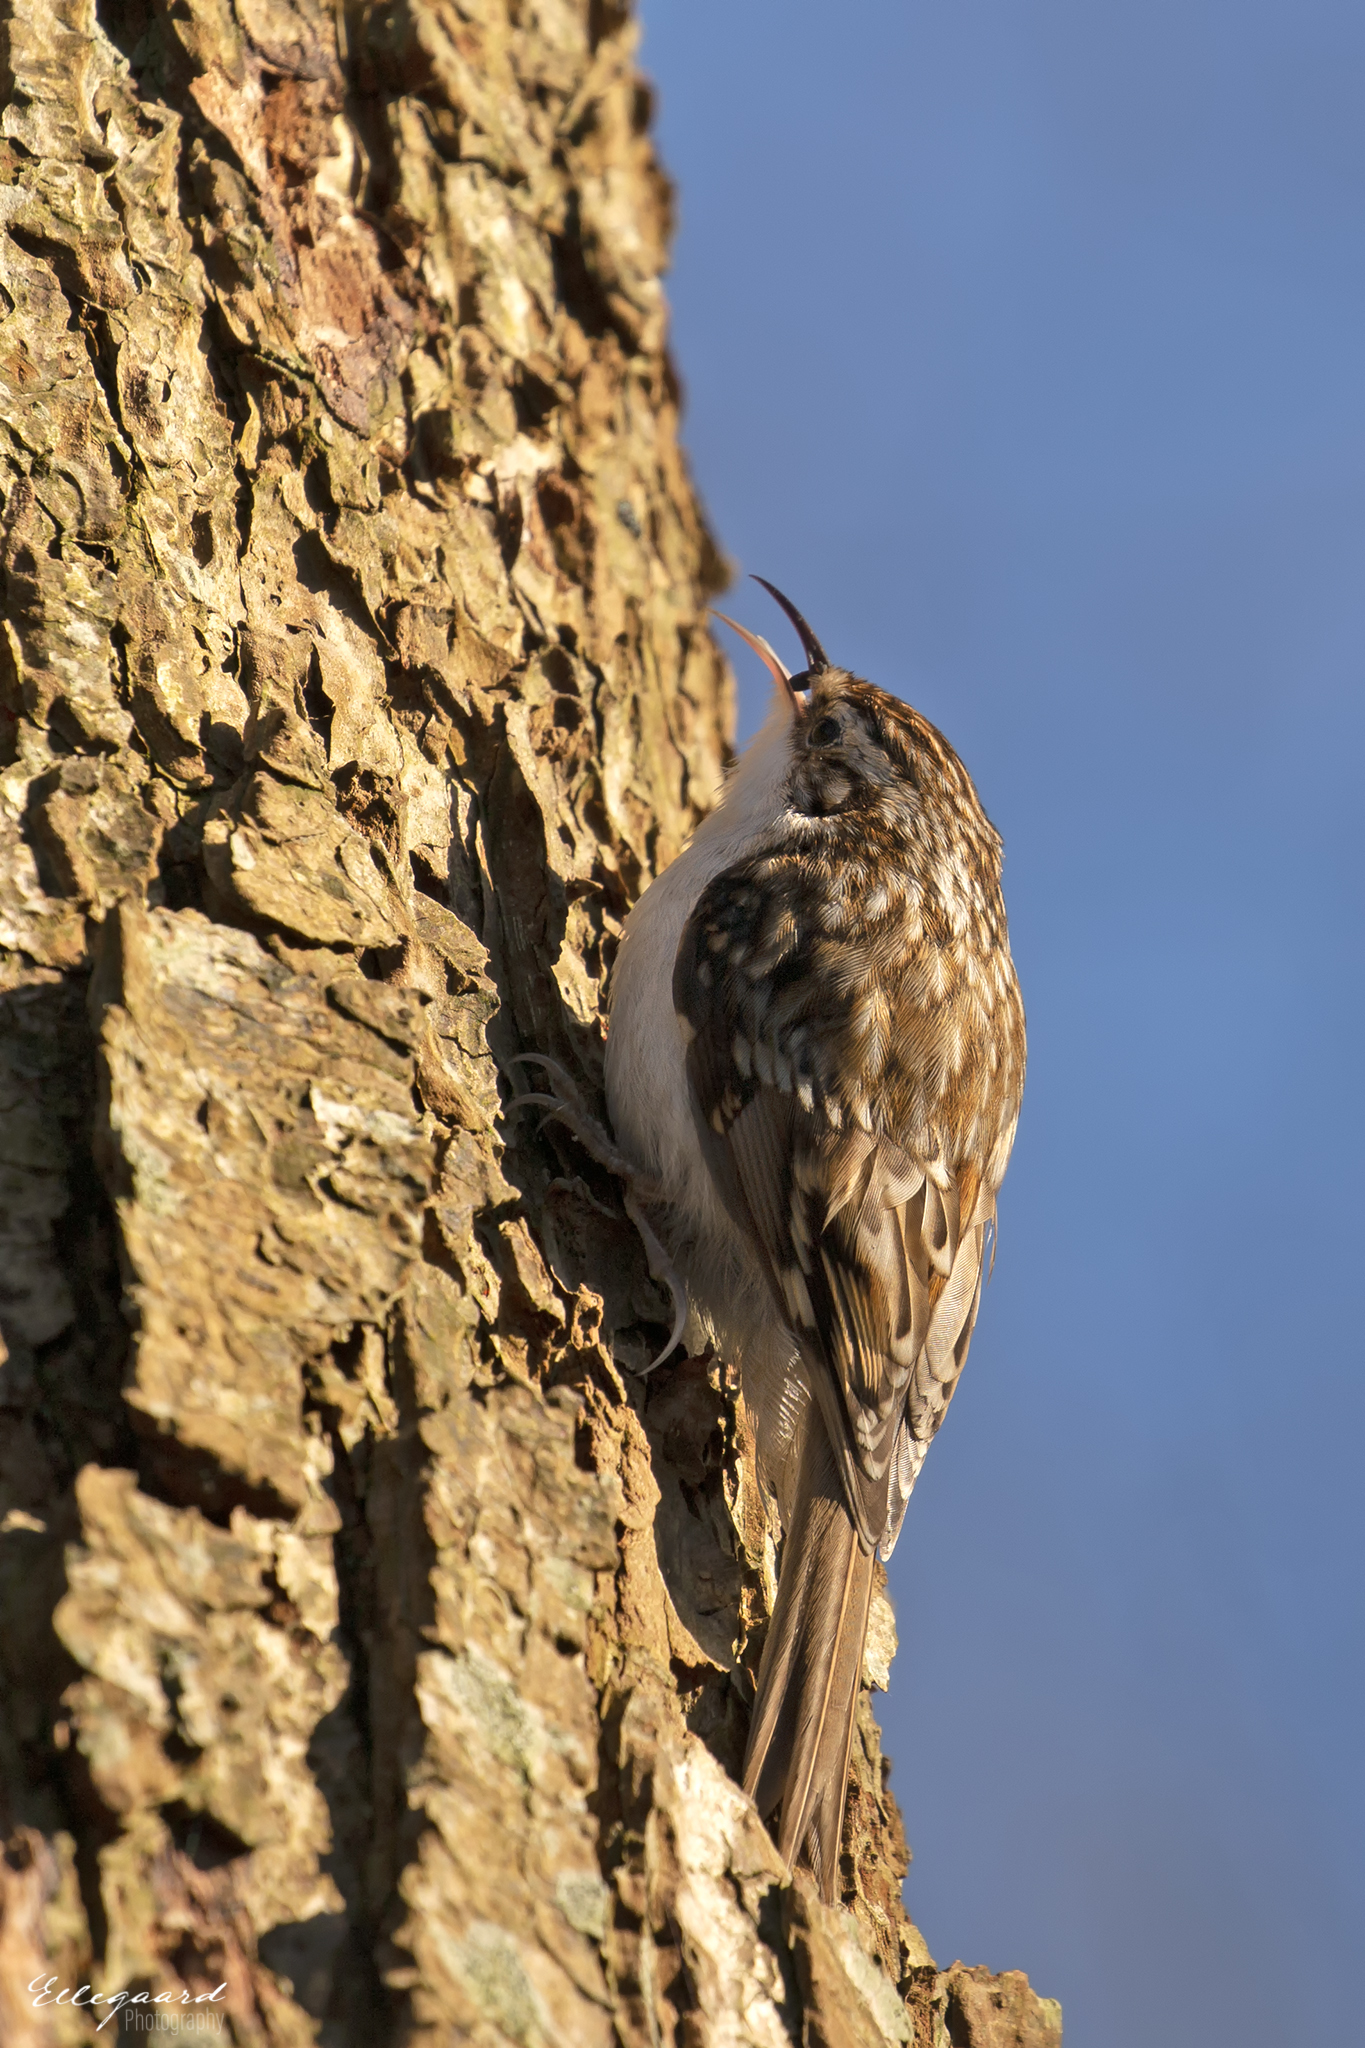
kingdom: Animalia
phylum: Chordata
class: Aves
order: Passeriformes
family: Certhiidae
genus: Certhia
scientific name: Certhia familiaris
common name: Eurasian treecreeper
